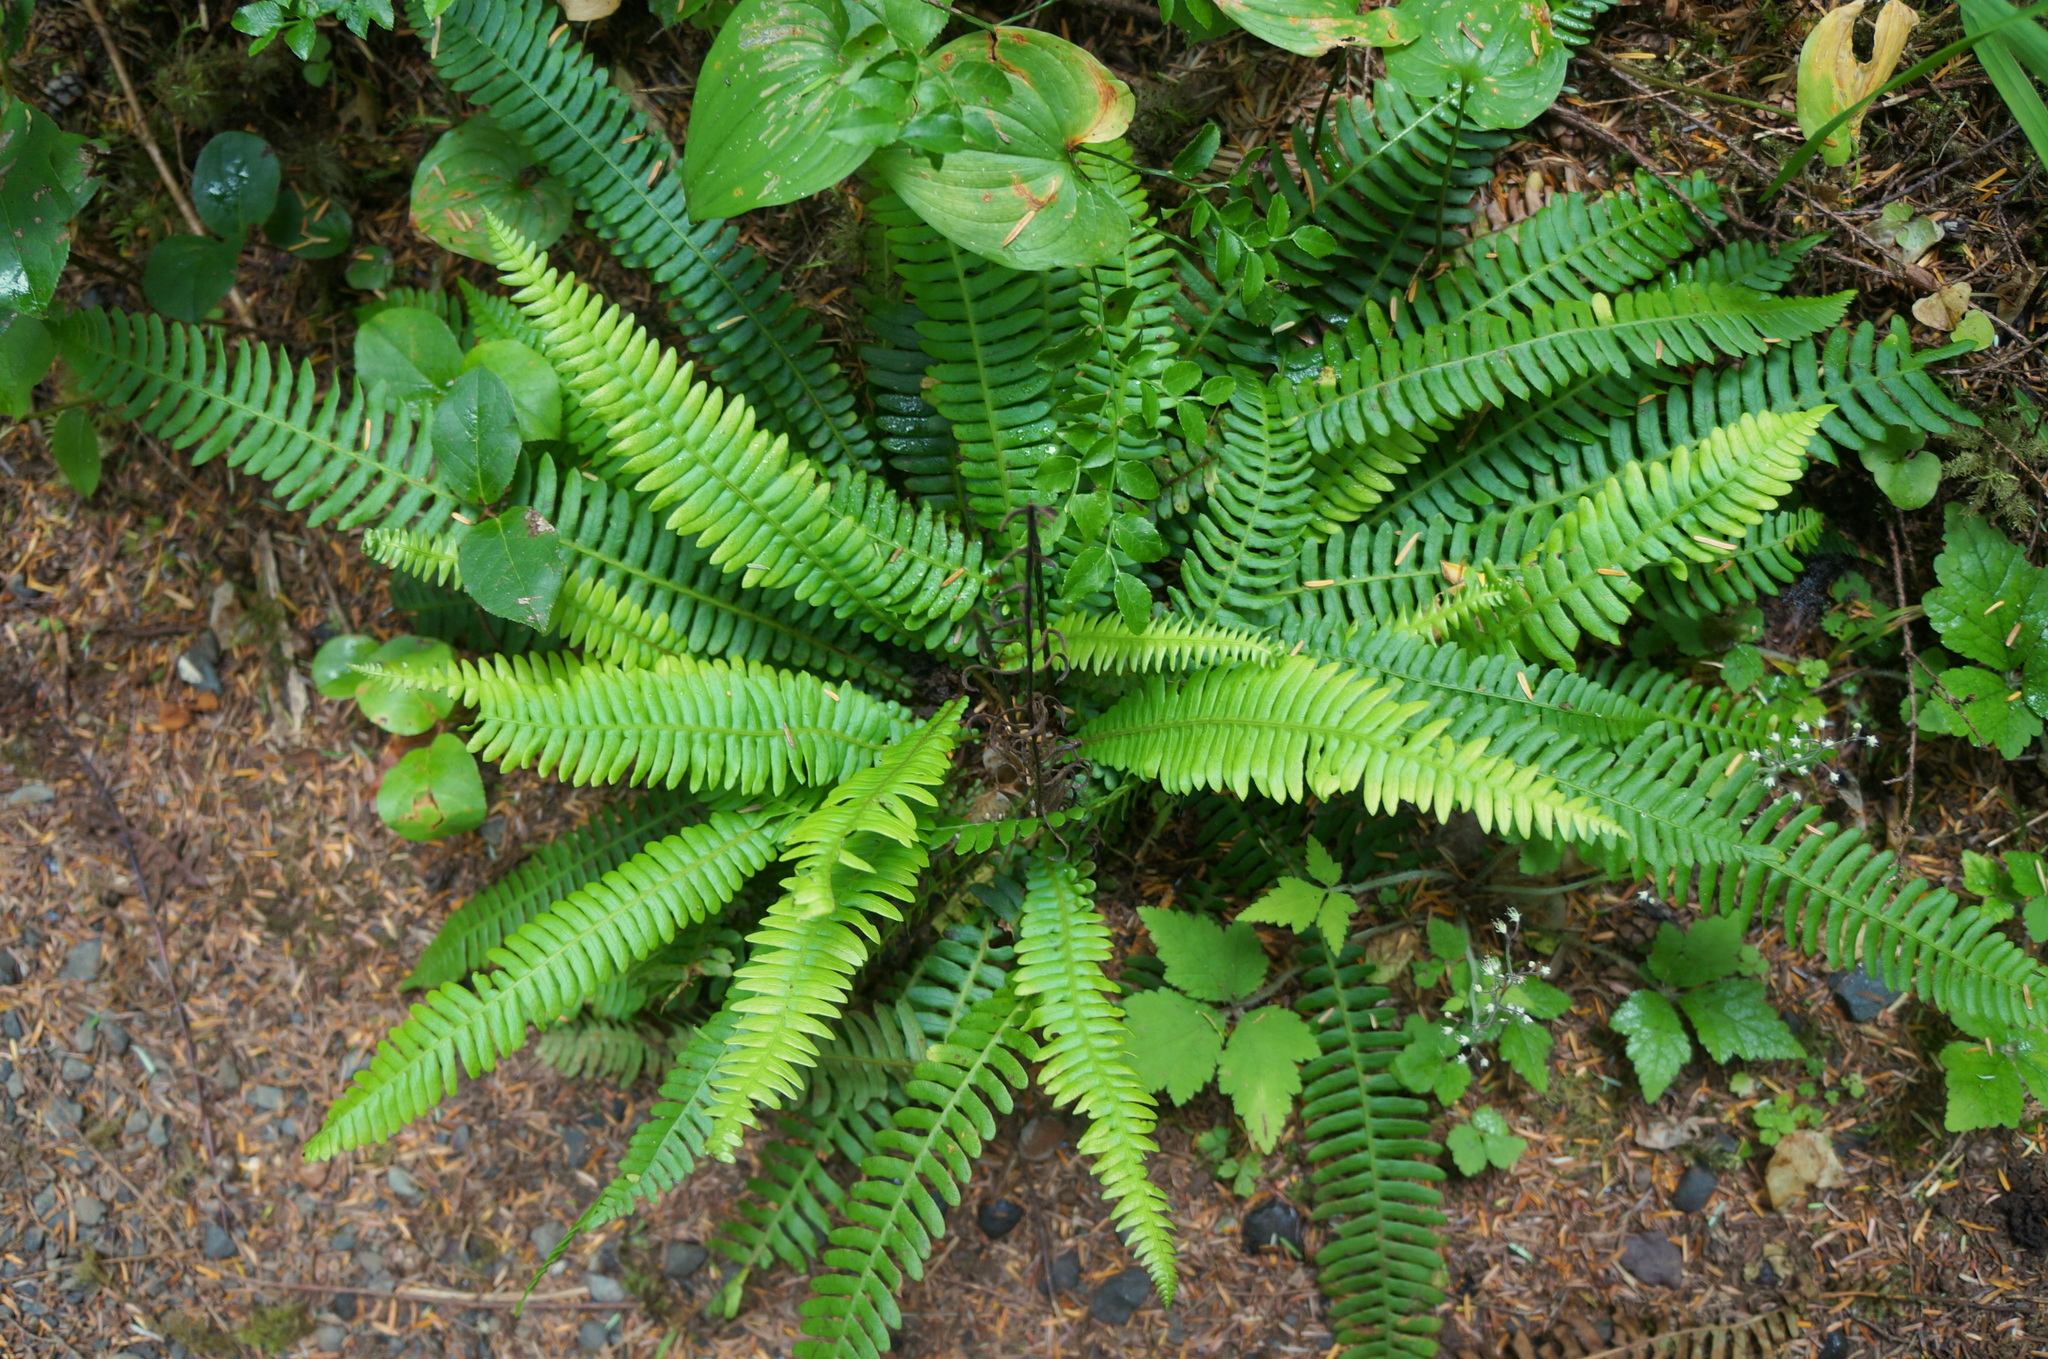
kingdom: Plantae
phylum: Tracheophyta
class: Polypodiopsida
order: Polypodiales
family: Blechnaceae
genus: Struthiopteris
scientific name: Struthiopteris spicant
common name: Deer fern
